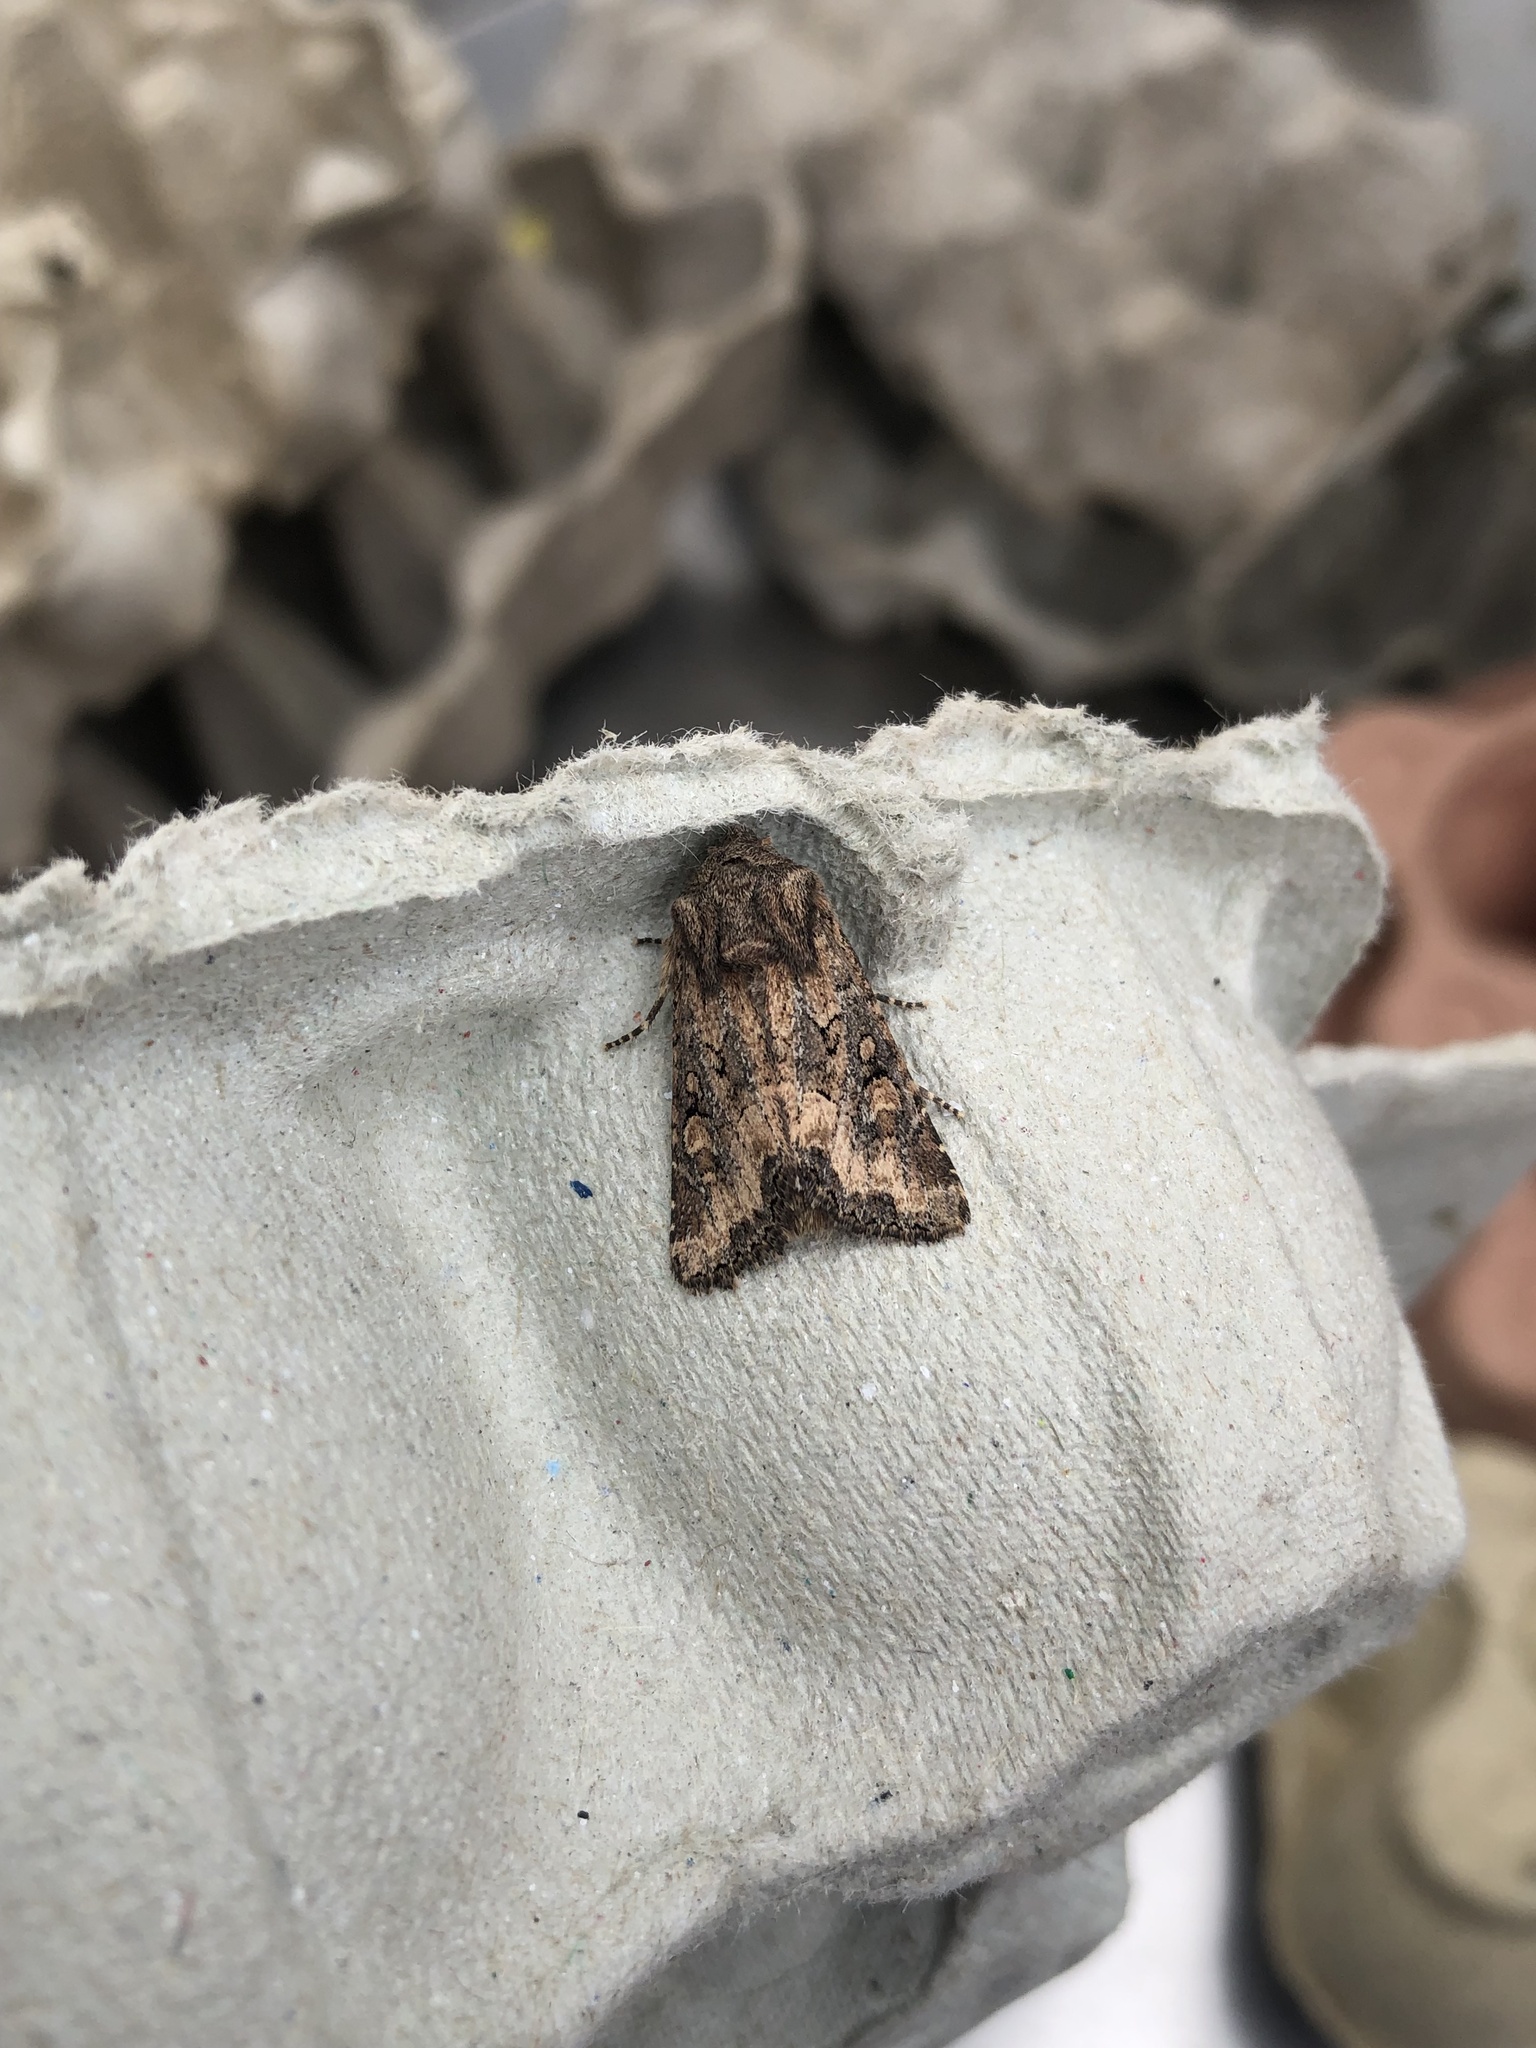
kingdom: Animalia
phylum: Arthropoda
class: Insecta
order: Lepidoptera
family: Noctuidae
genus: Luperina
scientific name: Luperina testacea
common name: Flounced rustic
